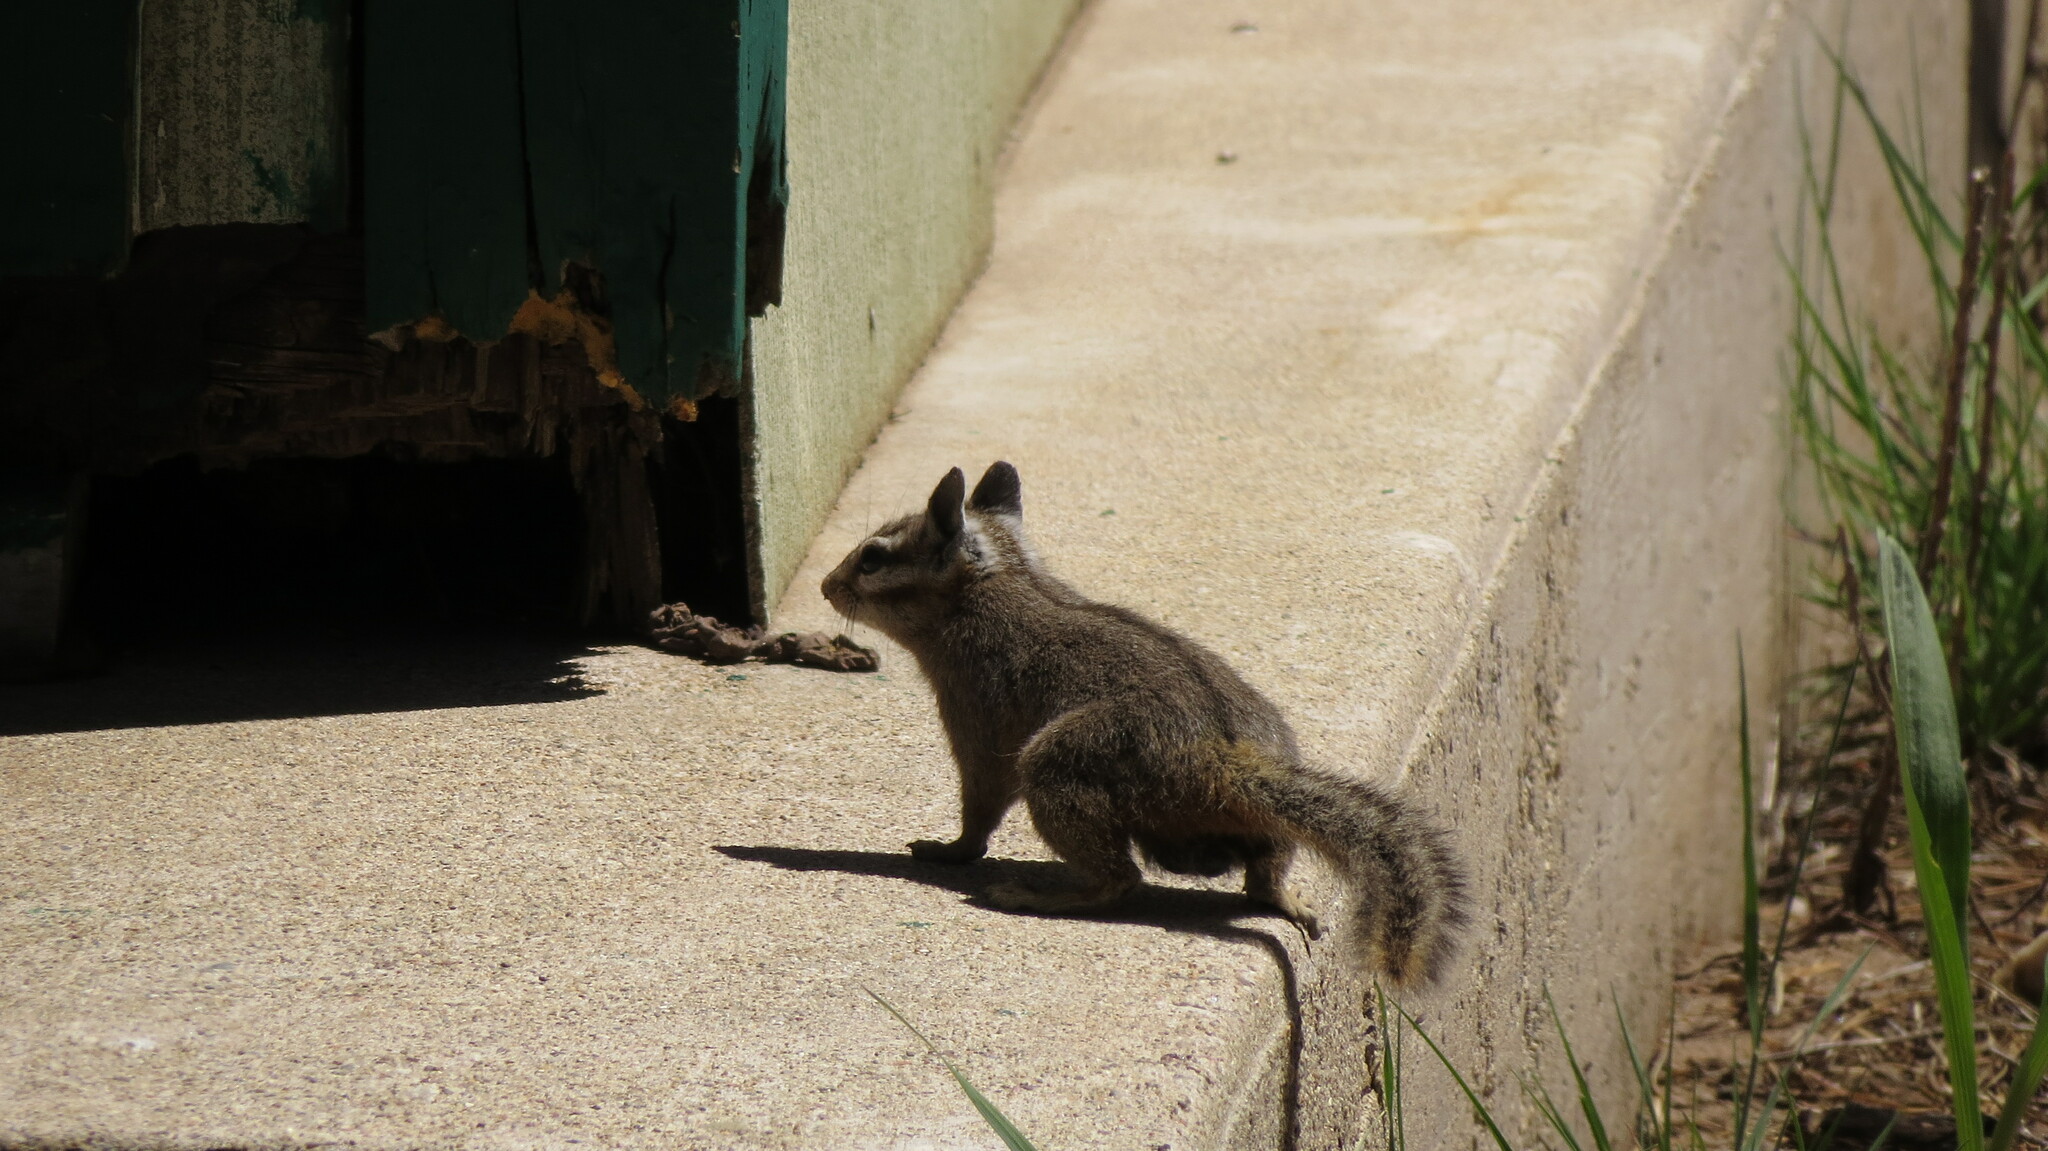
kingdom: Animalia
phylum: Chordata
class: Mammalia
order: Rodentia
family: Sciuridae
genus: Tamias
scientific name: Tamias dorsalis
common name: Cliff chipmunk
